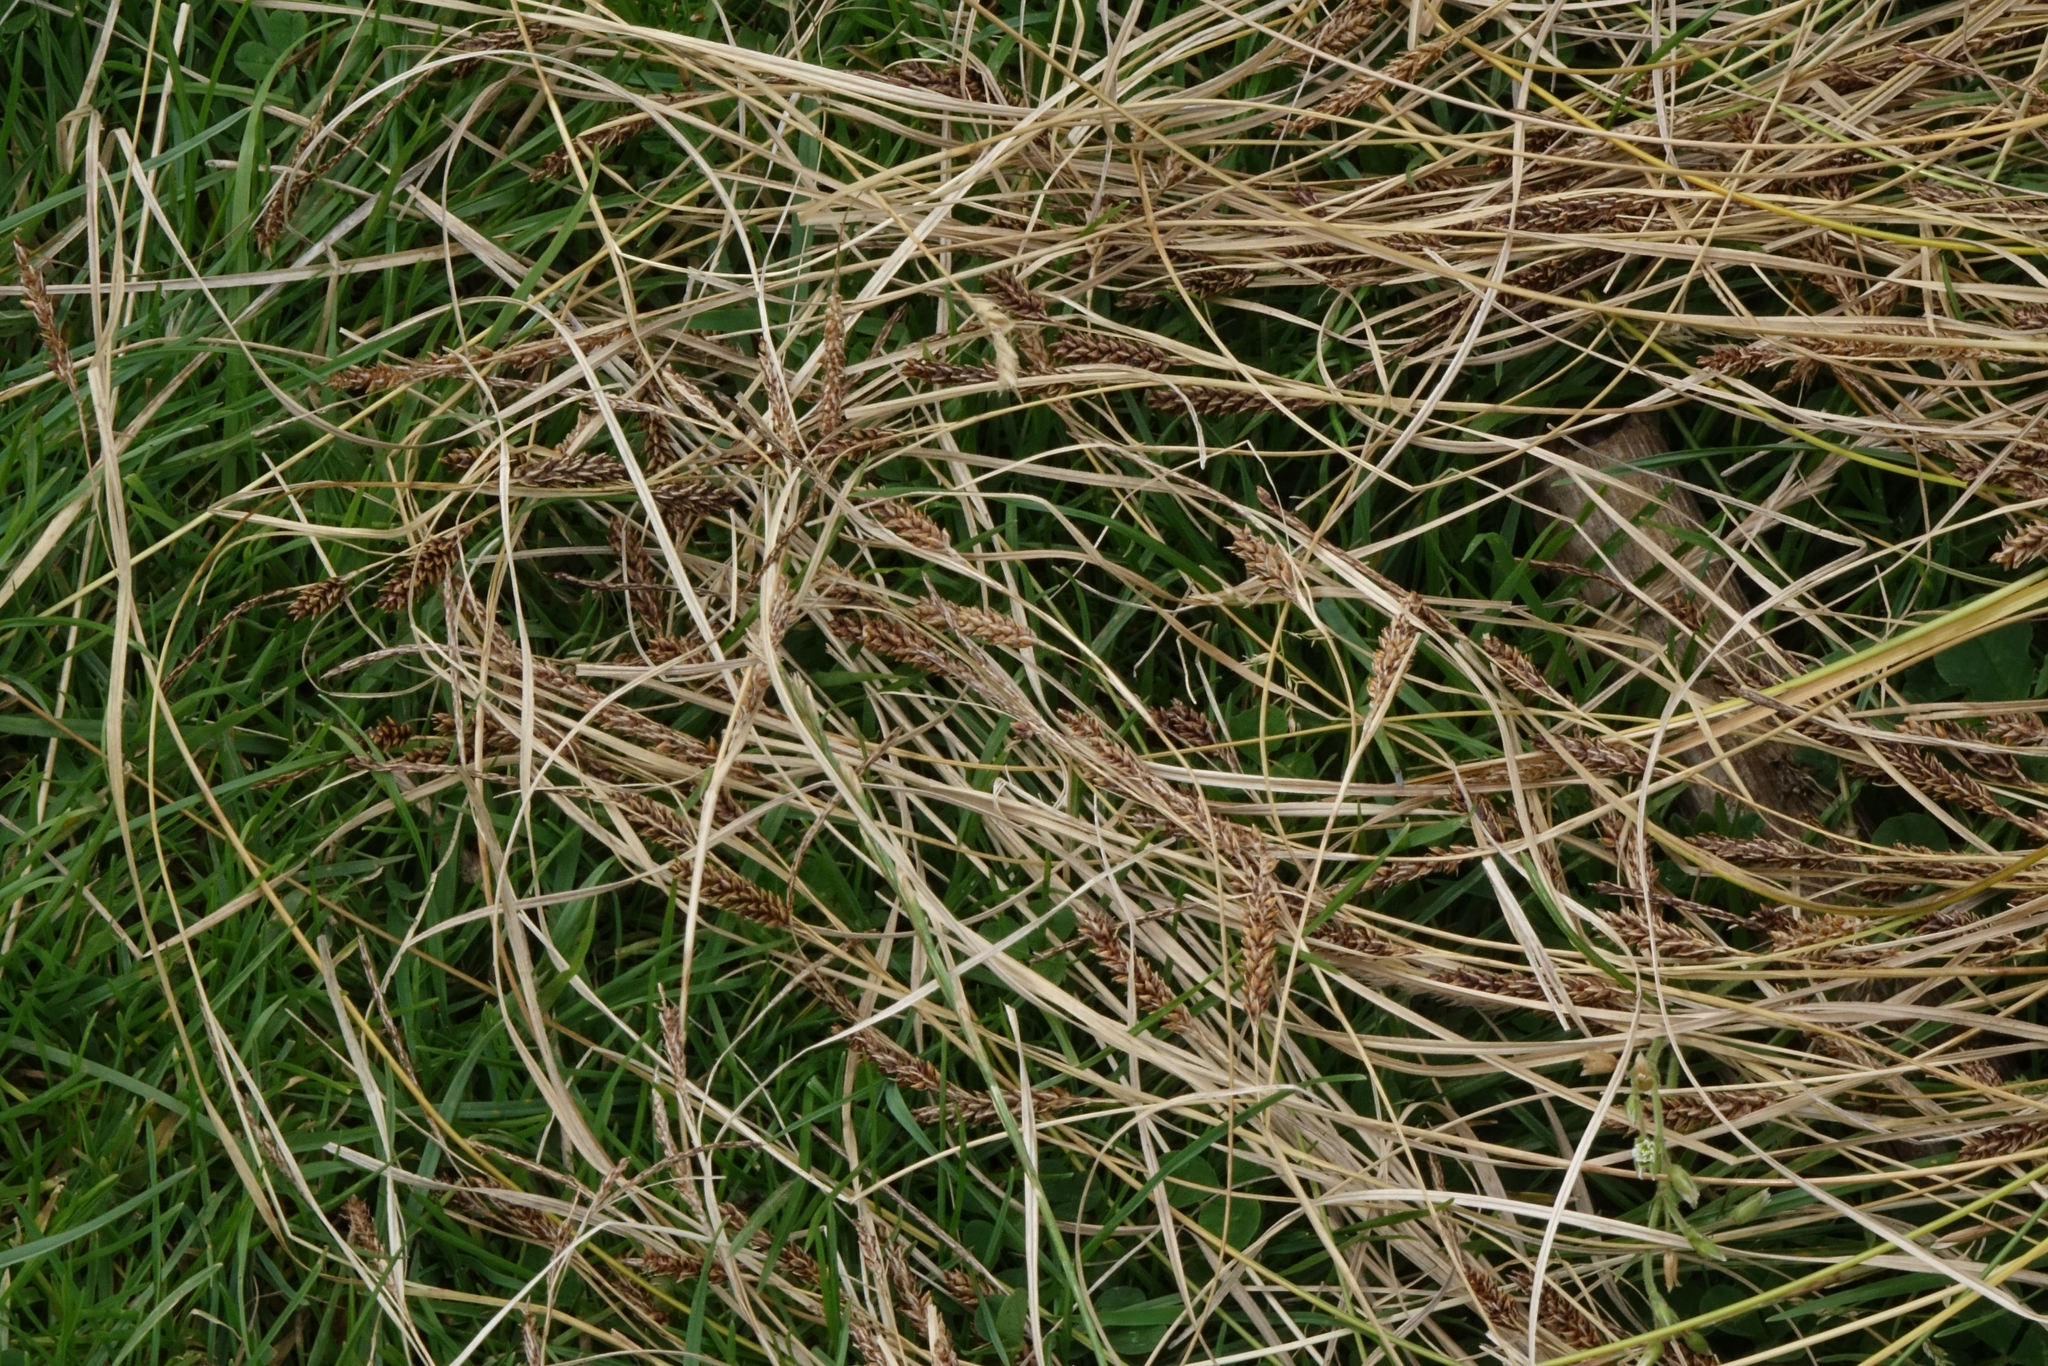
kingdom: Plantae
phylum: Tracheophyta
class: Liliopsida
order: Poales
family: Cyperaceae
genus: Carex
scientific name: Carex testacea
